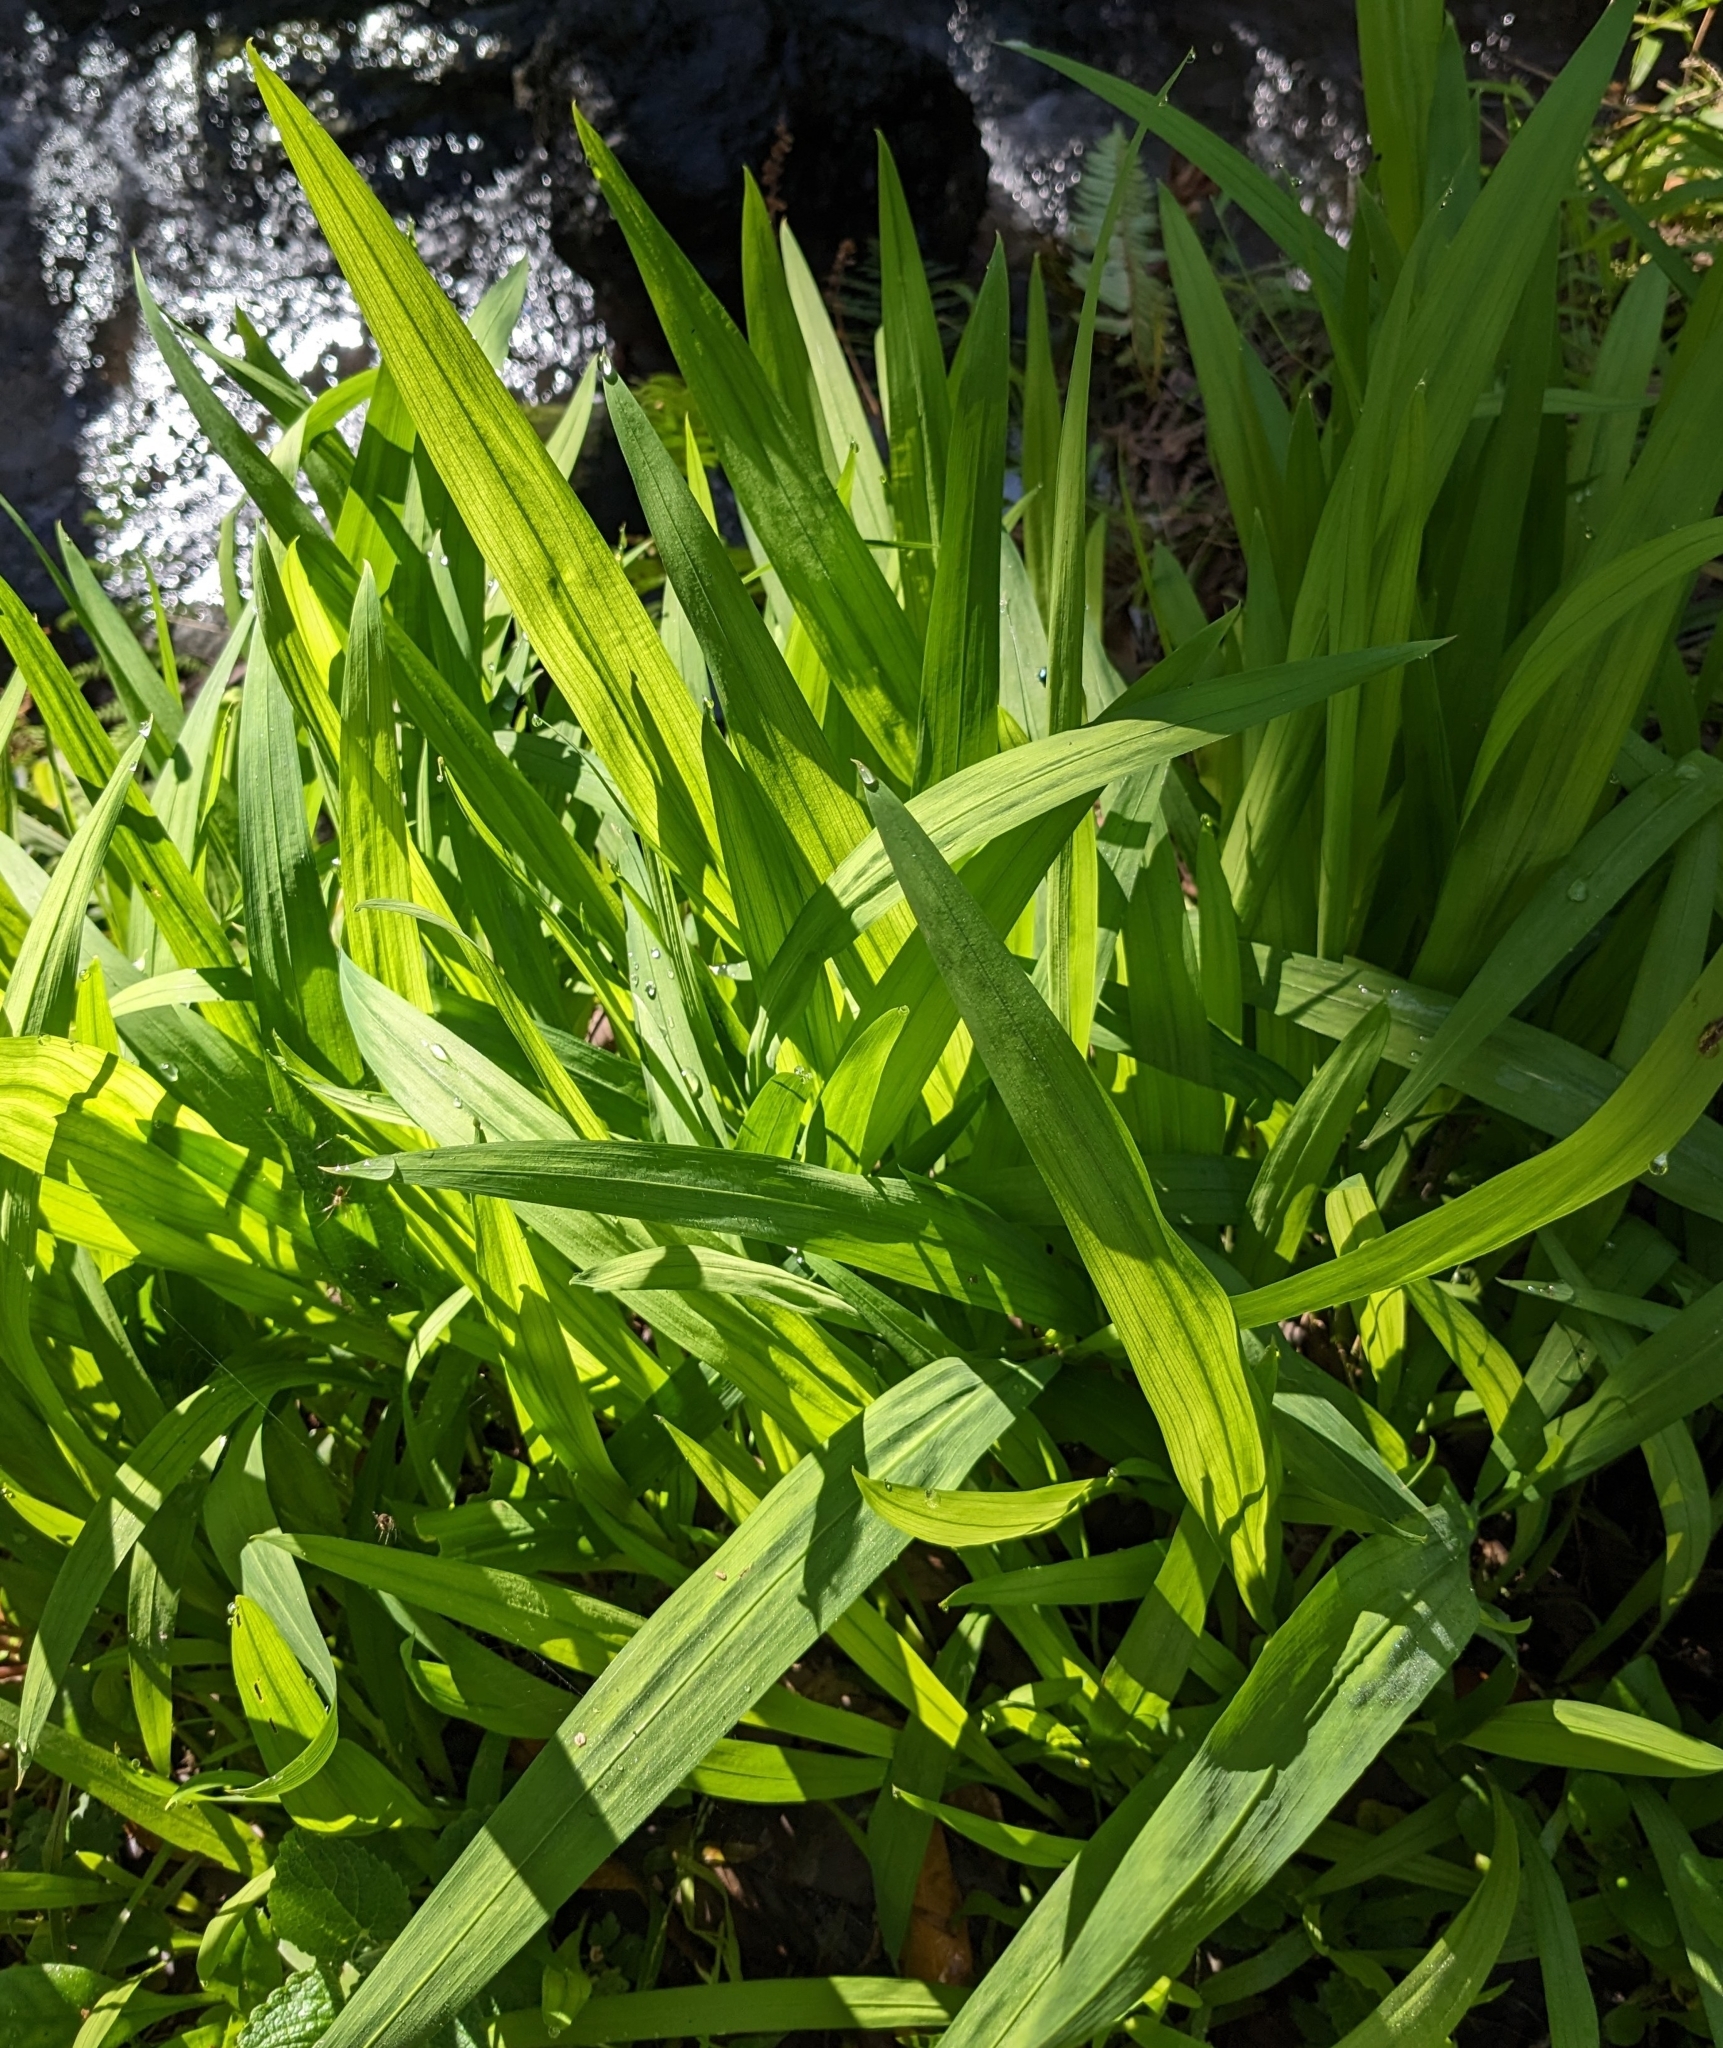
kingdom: Plantae
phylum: Tracheophyta
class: Liliopsida
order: Asparagales
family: Iridaceae
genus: Crocosmia
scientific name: Crocosmia crocosmiiflora
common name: Montbretia
